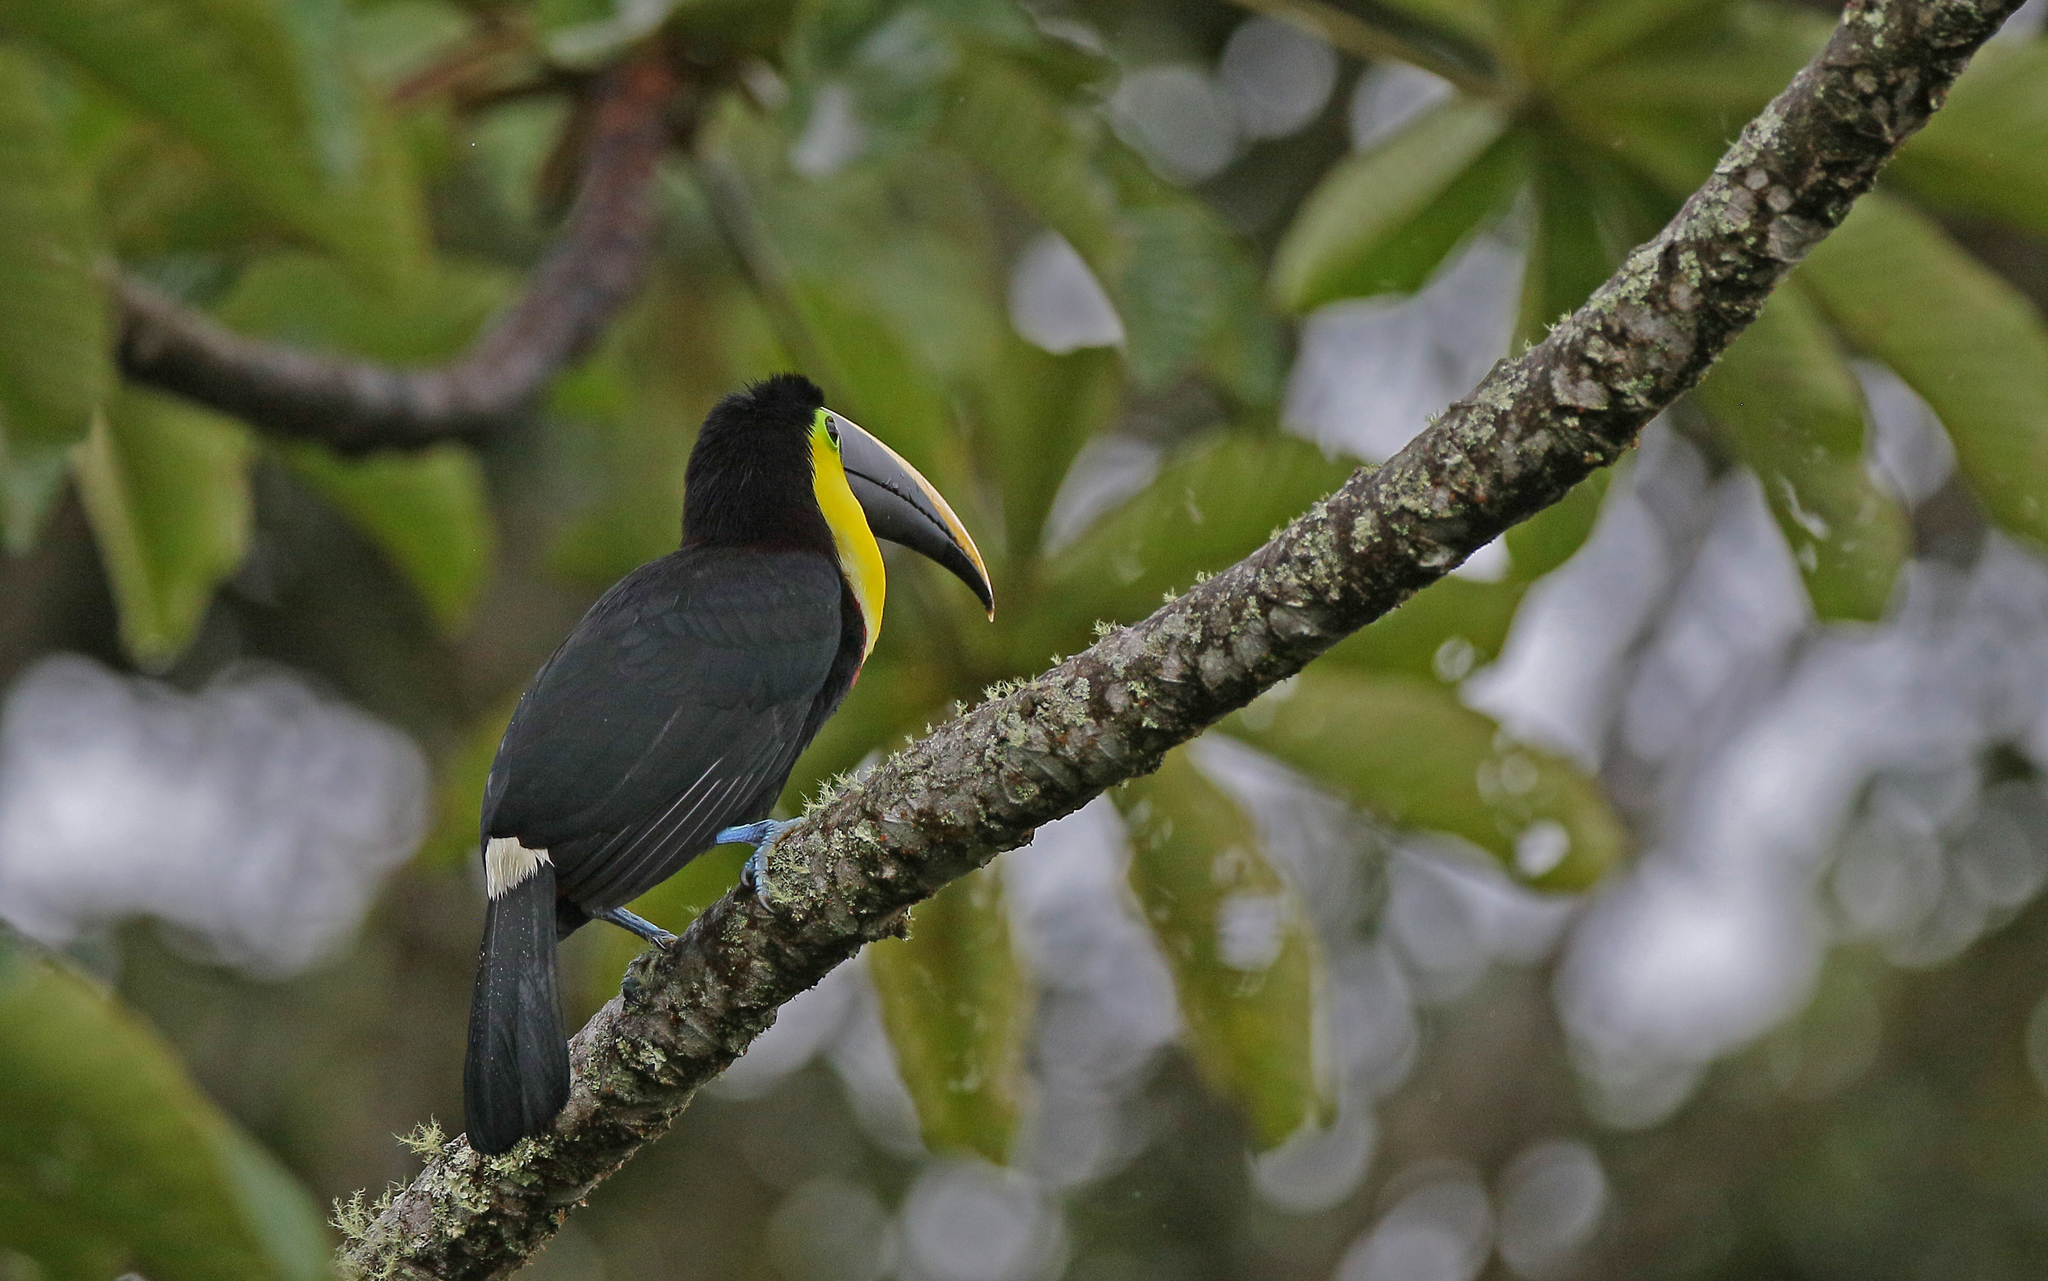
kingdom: Animalia
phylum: Chordata
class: Aves
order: Piciformes
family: Ramphastidae
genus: Ramphastos
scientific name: Ramphastos ambiguus
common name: Yellow-throated toucan
